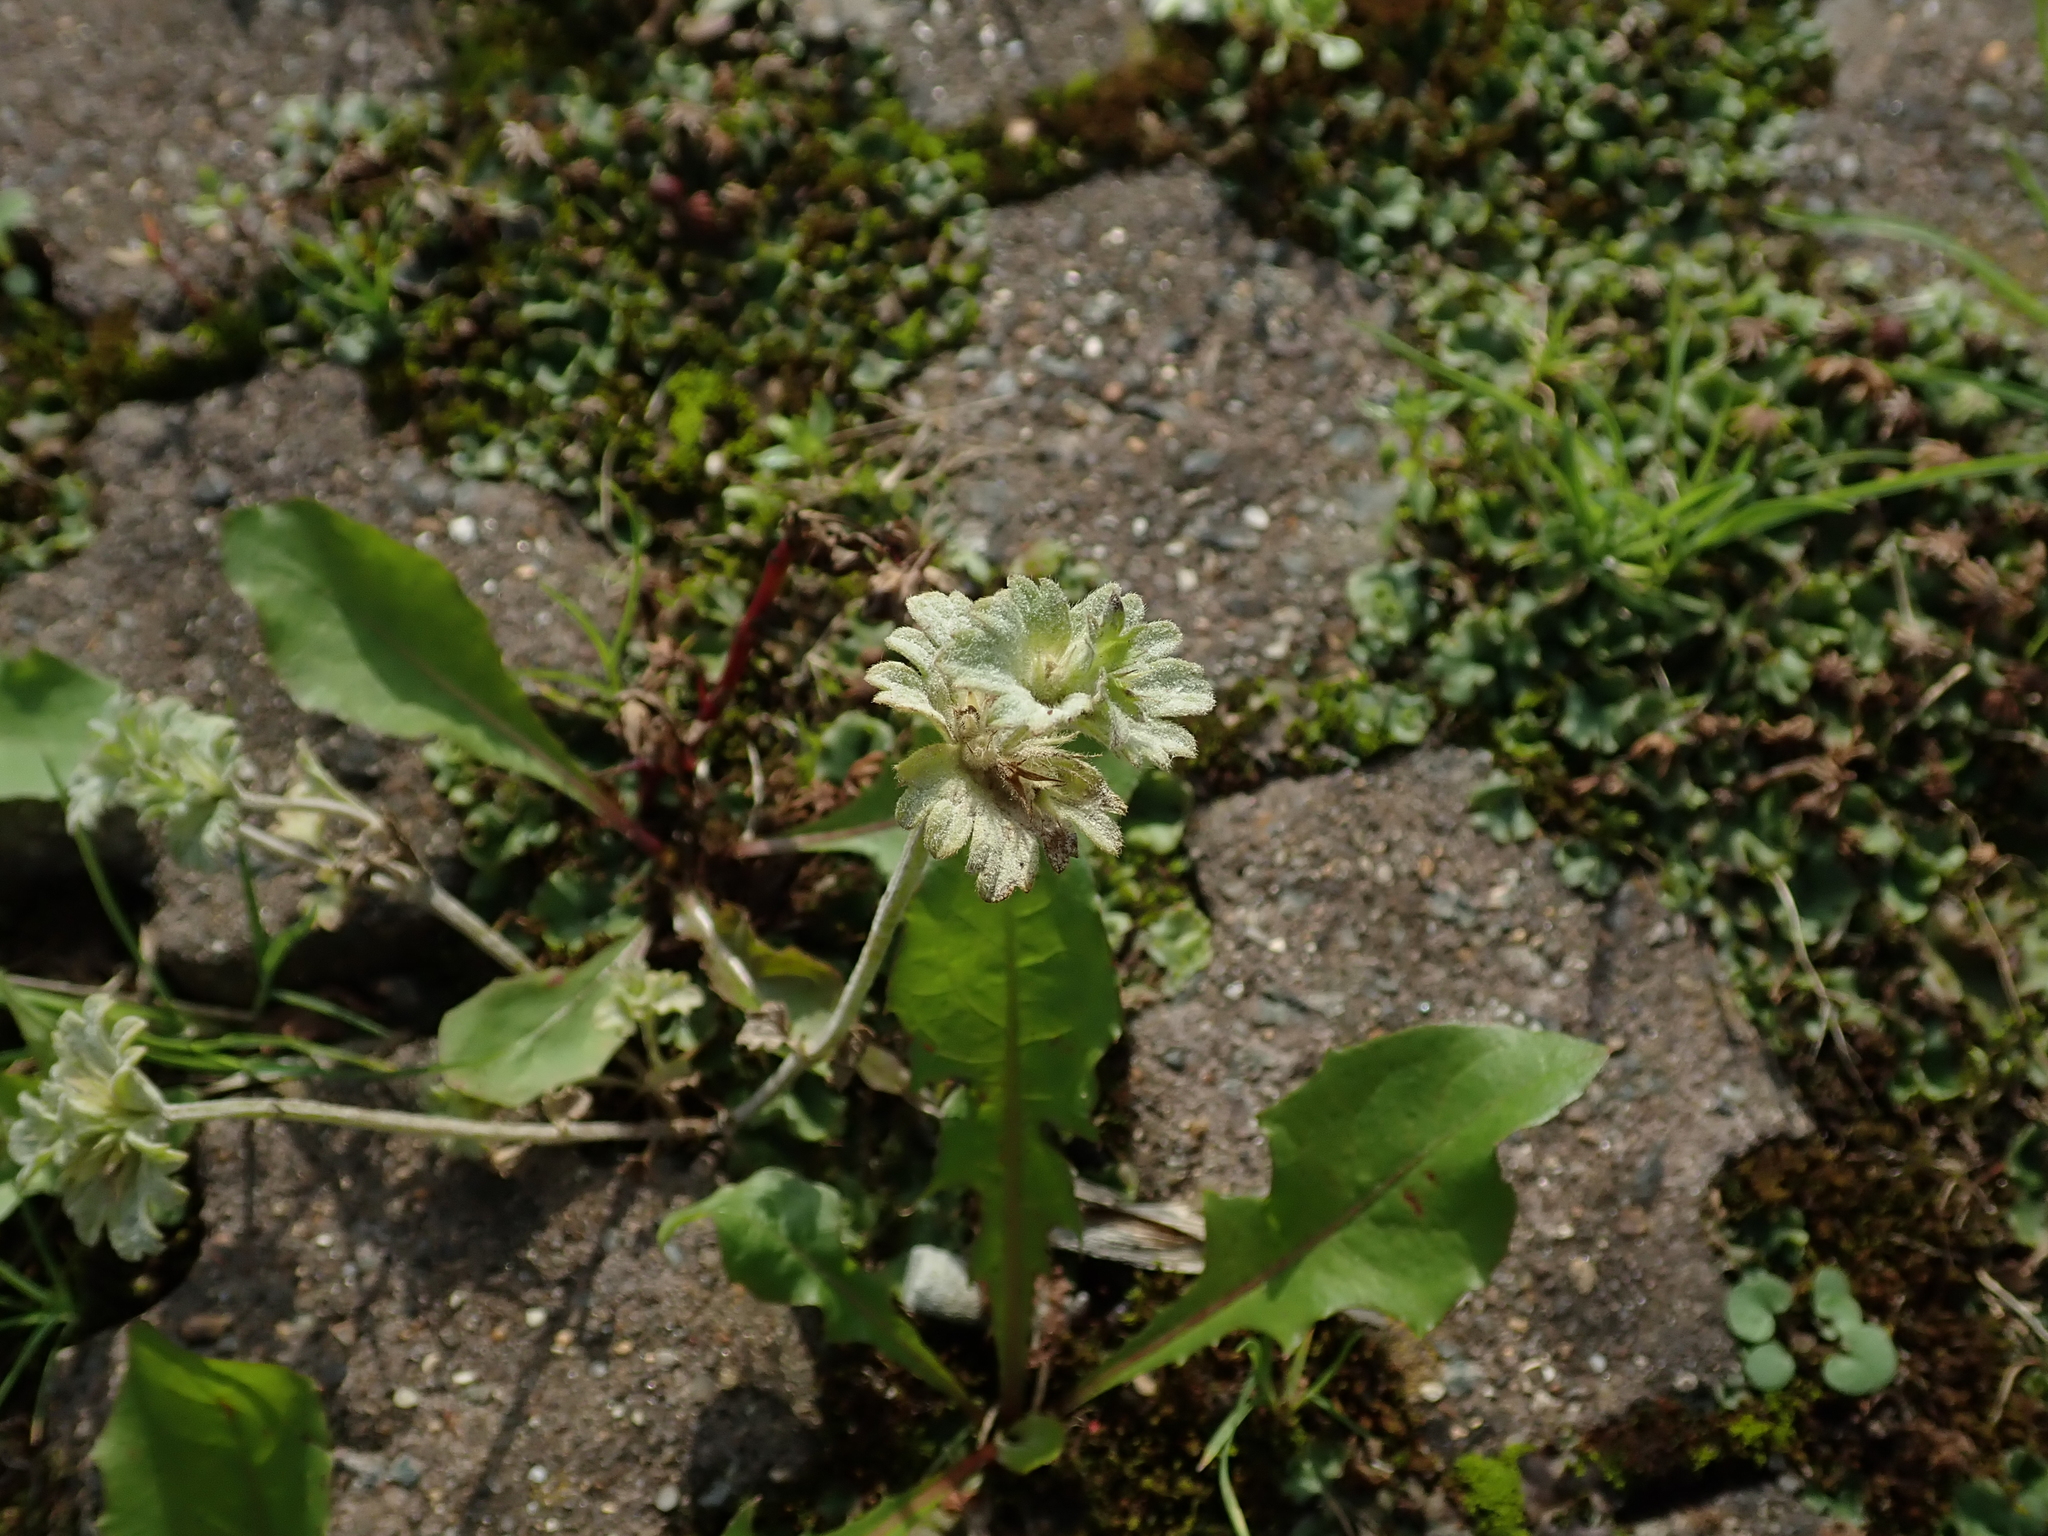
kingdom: Plantae
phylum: Tracheophyta
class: Magnoliopsida
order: Lamiales
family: Lamiaceae
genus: Lamium
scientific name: Lamium amplexicaule
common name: Henbit dead-nettle
